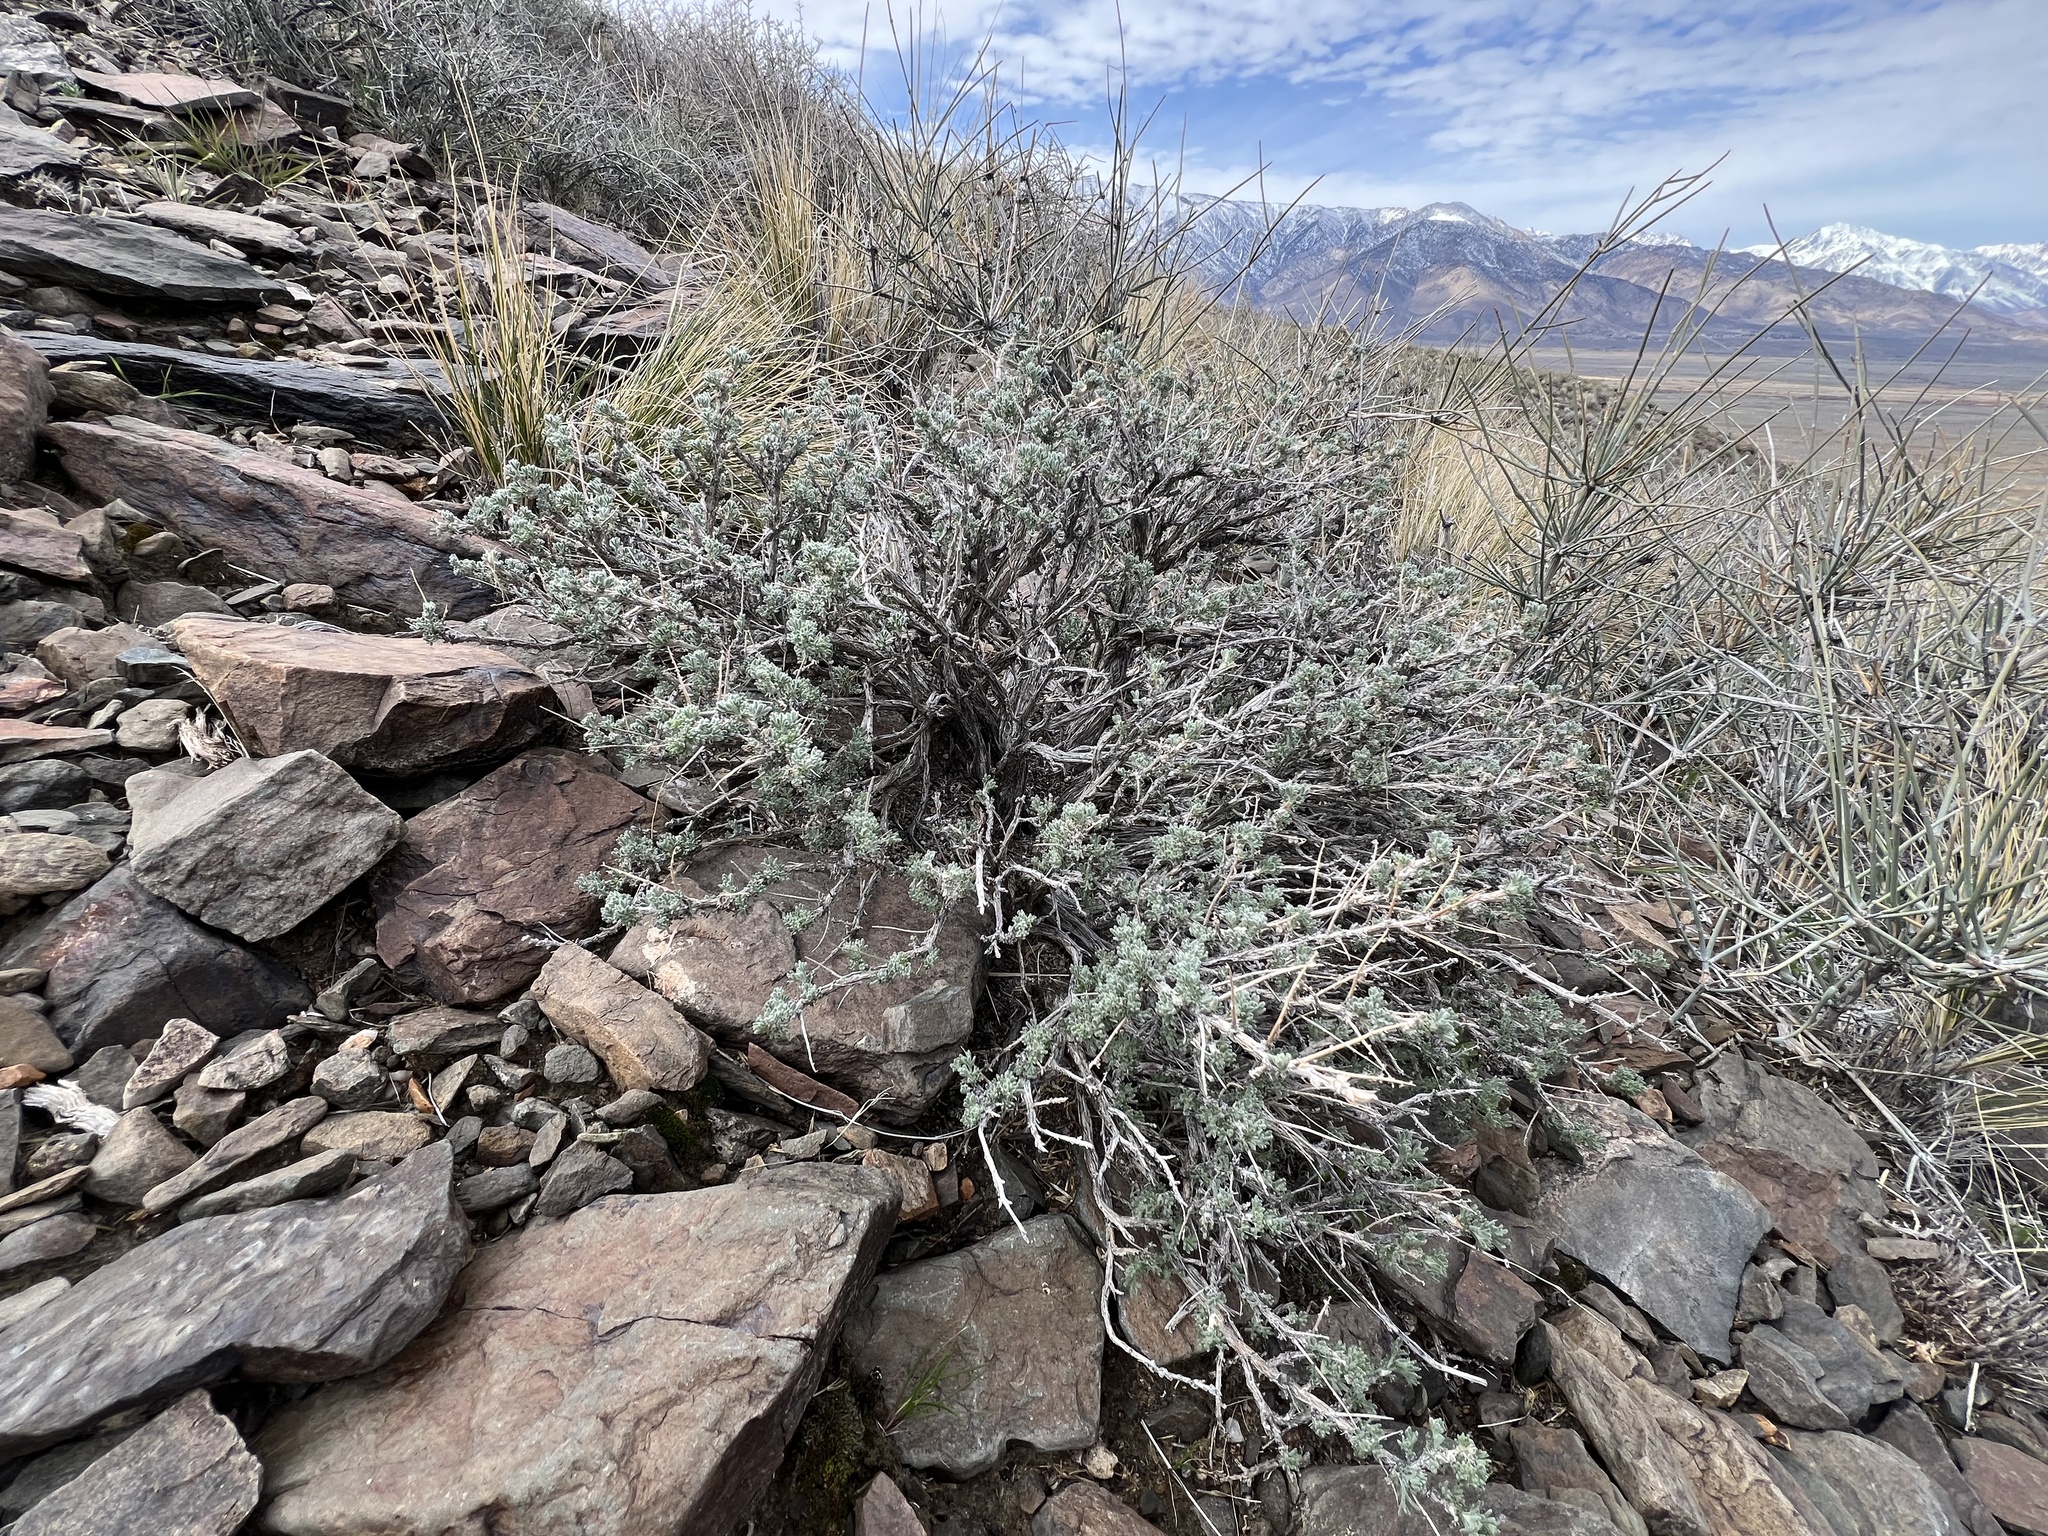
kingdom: Plantae
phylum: Tracheophyta
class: Magnoliopsida
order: Asterales
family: Asteraceae
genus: Artemisia
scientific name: Artemisia spinescens
